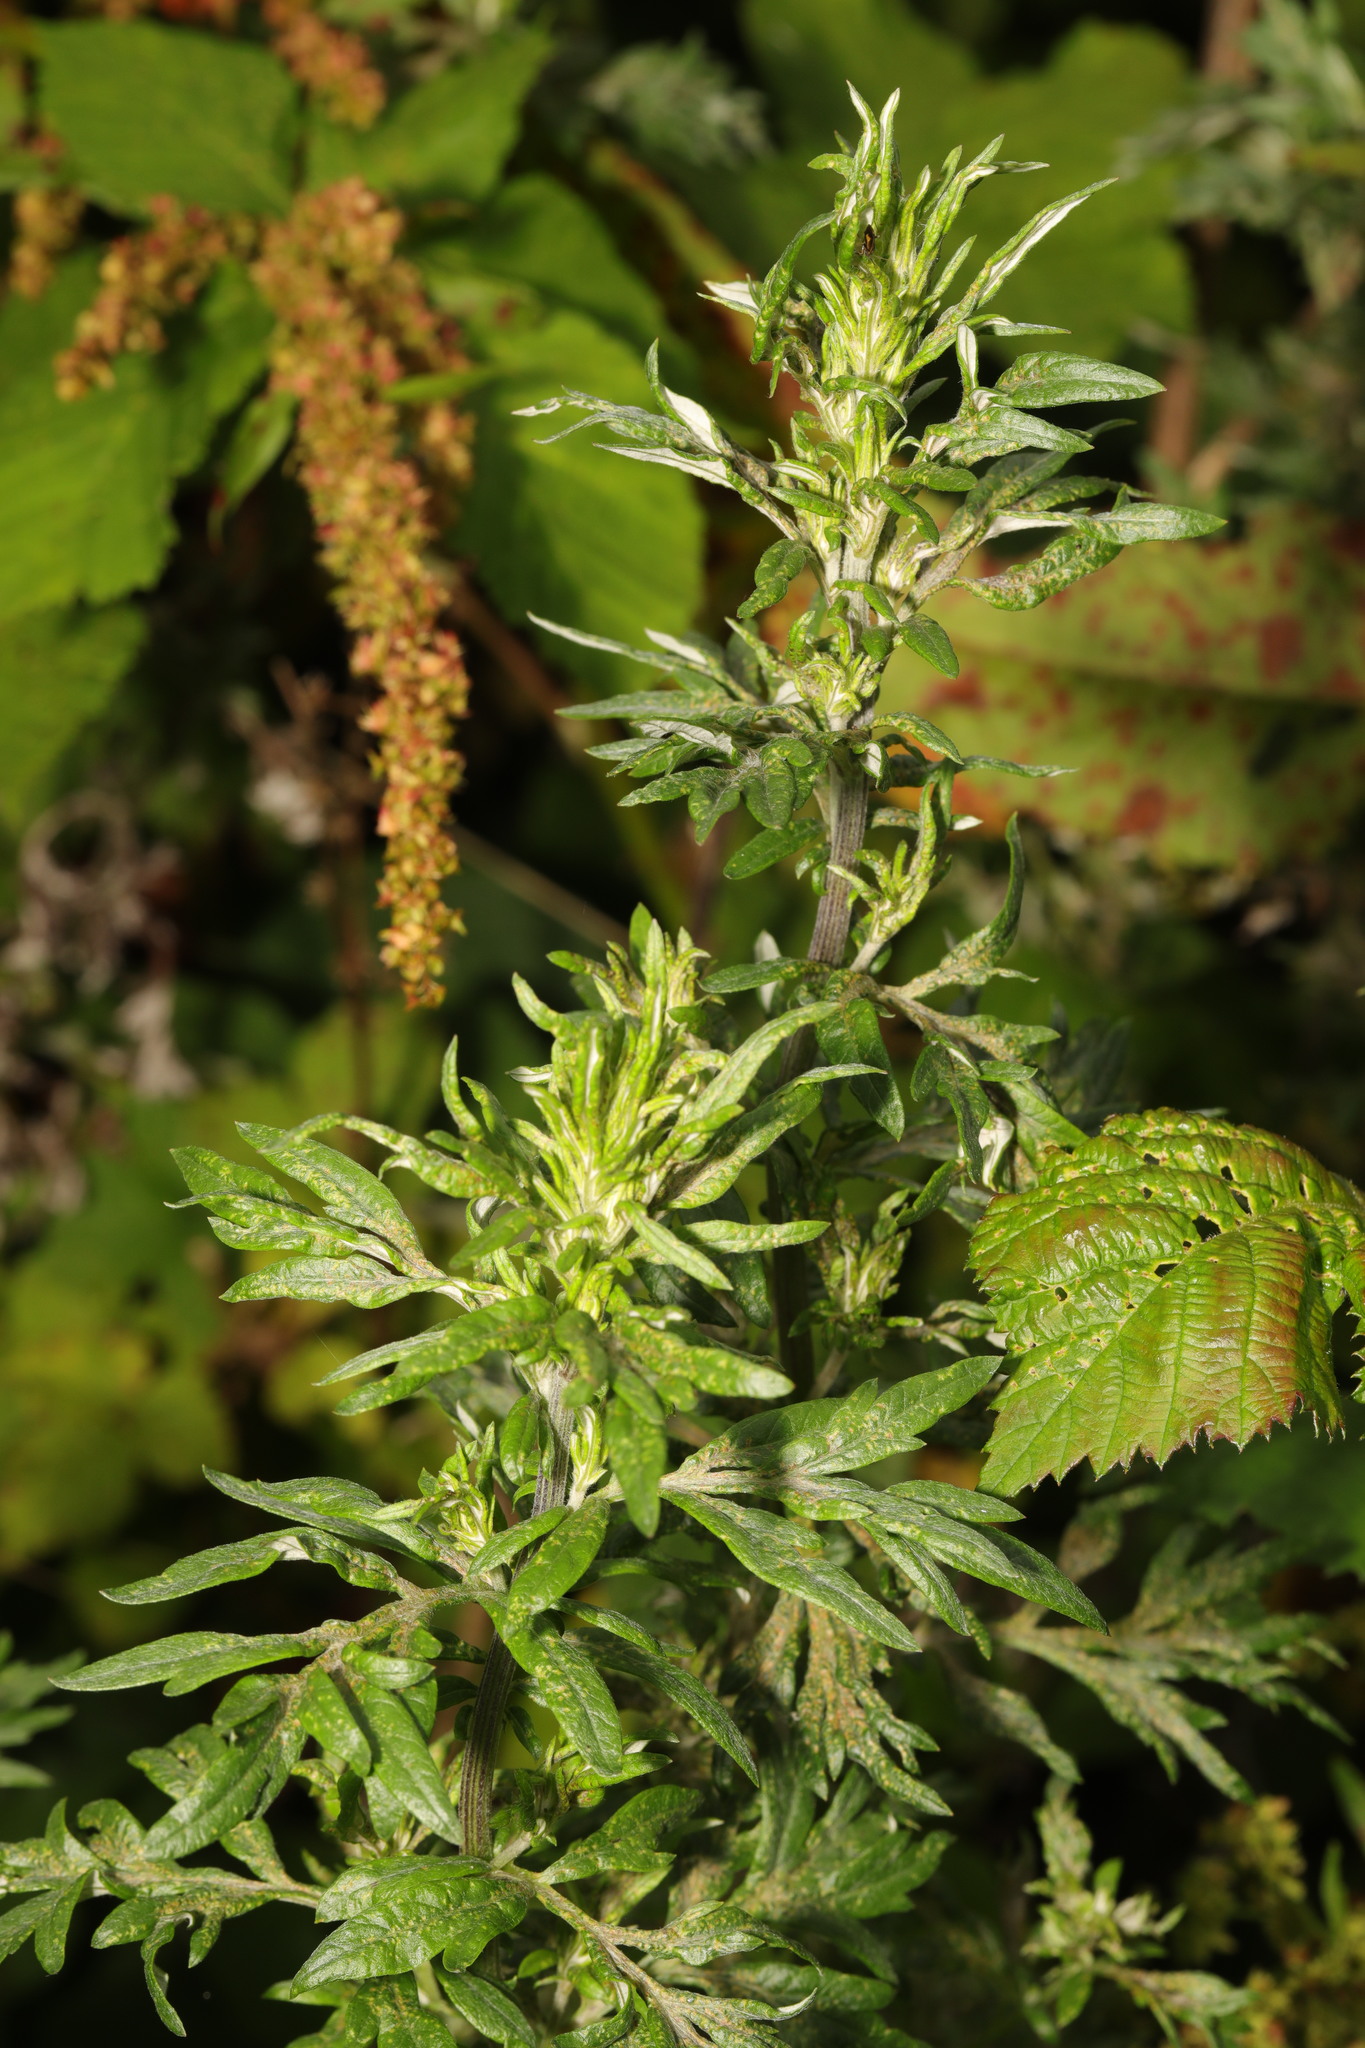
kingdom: Plantae
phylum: Tracheophyta
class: Magnoliopsida
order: Asterales
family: Asteraceae
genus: Artemisia
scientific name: Artemisia vulgaris
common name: Mugwort
